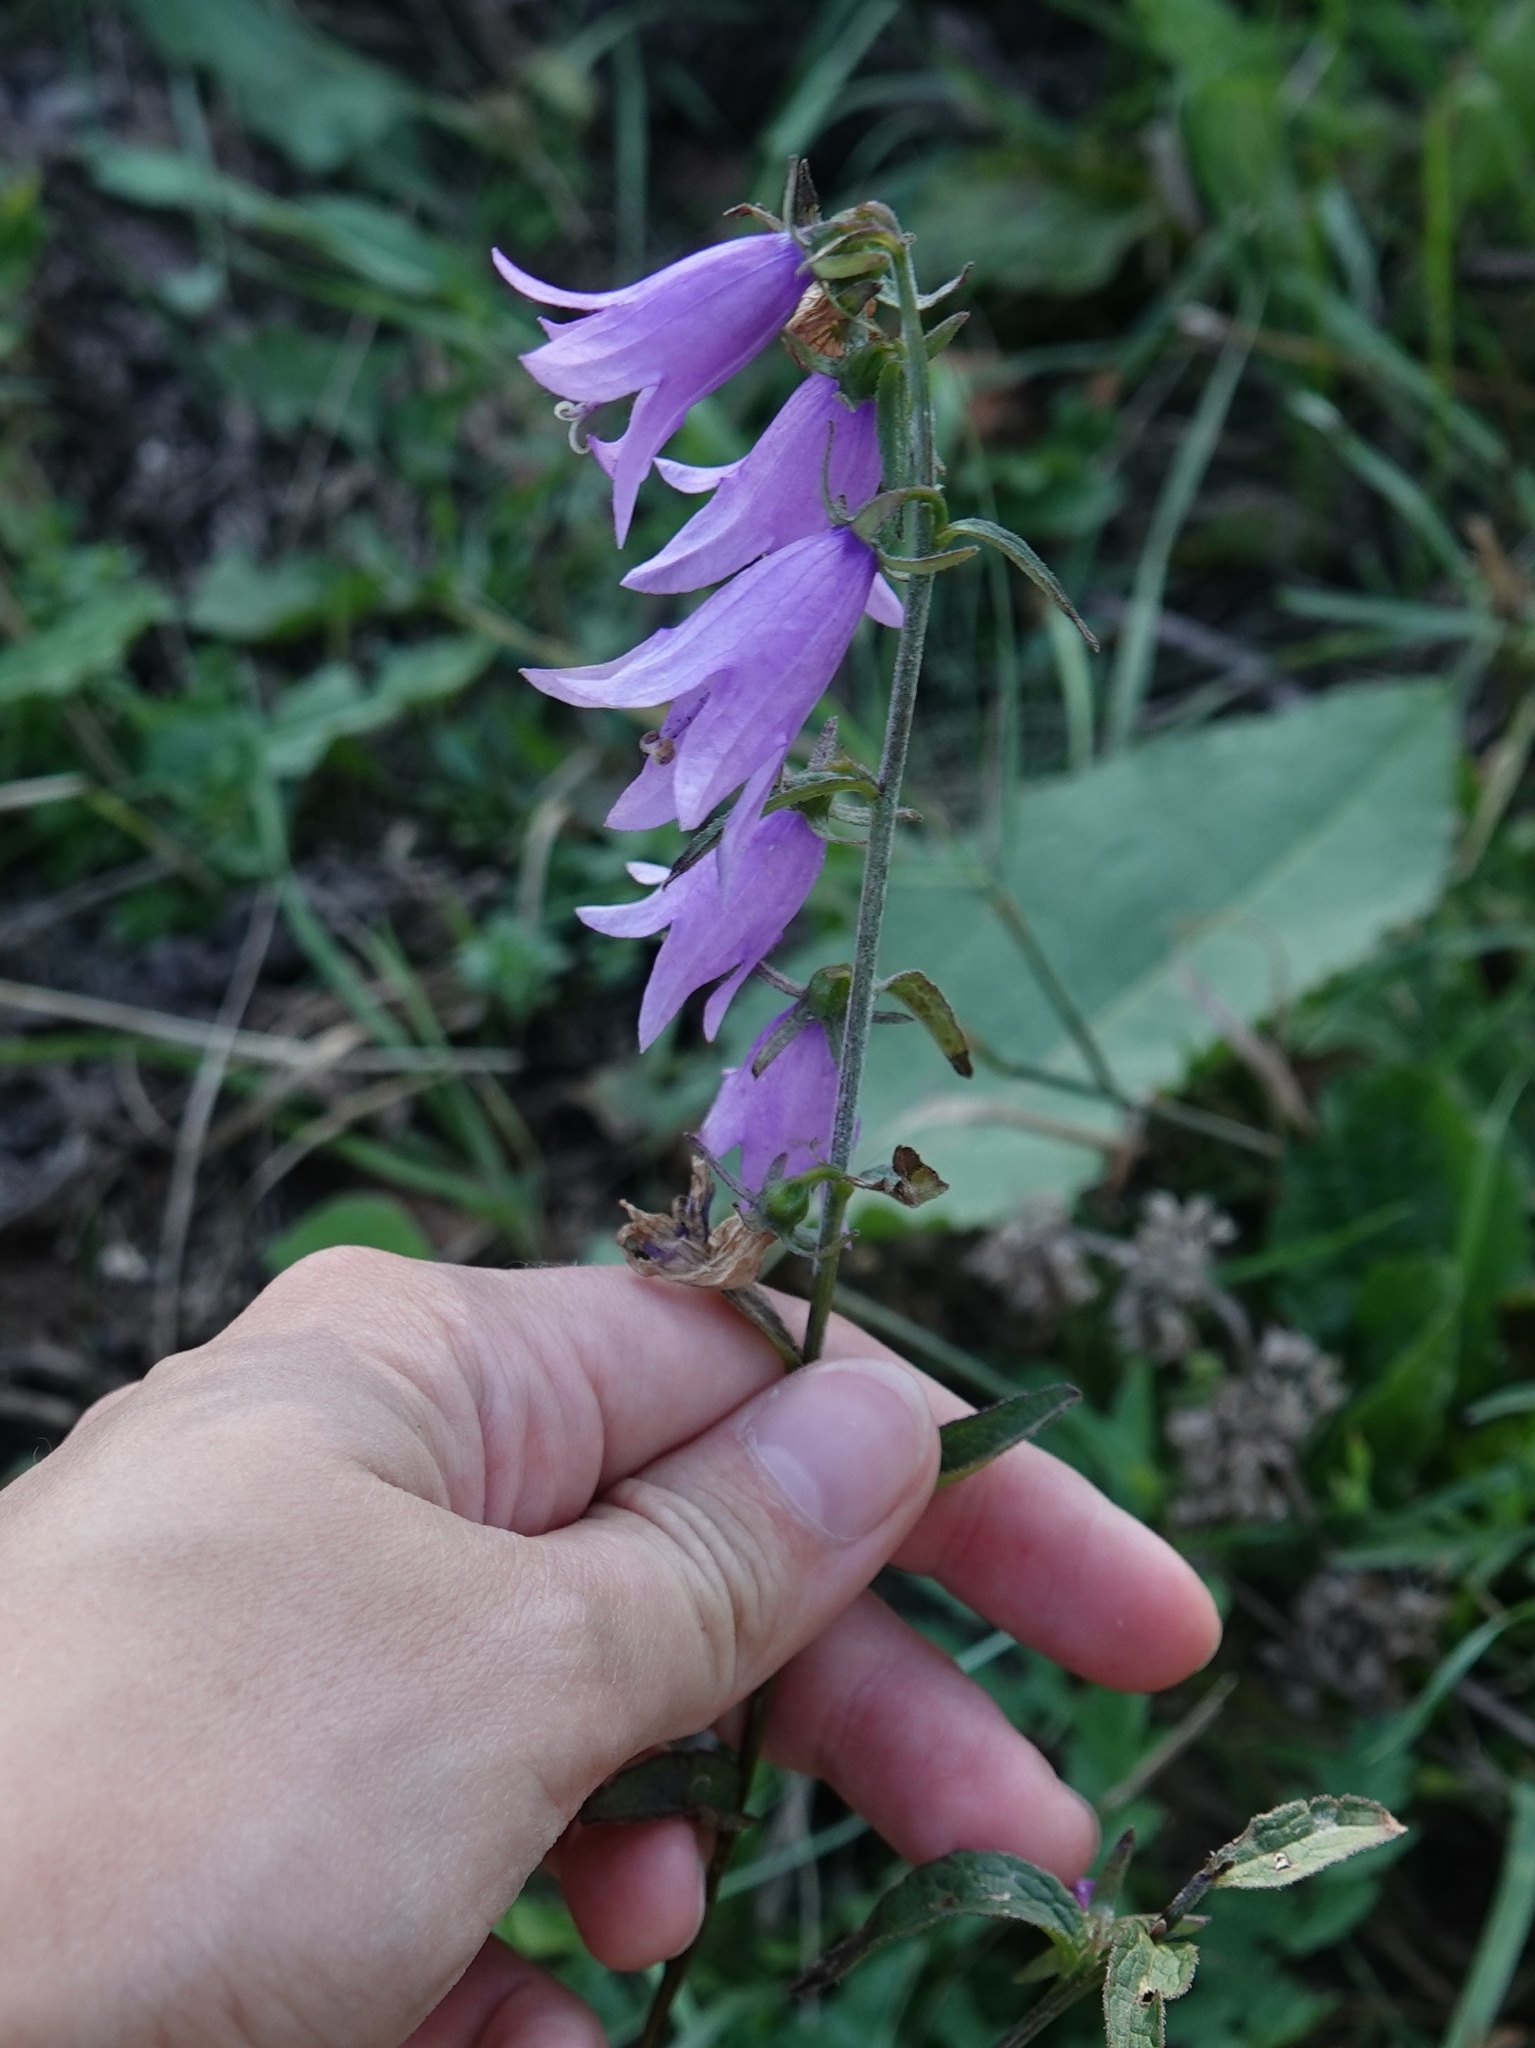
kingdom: Plantae
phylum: Tracheophyta
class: Magnoliopsida
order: Asterales
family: Campanulaceae
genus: Campanula
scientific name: Campanula rapunculoides
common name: Creeping bellflower
